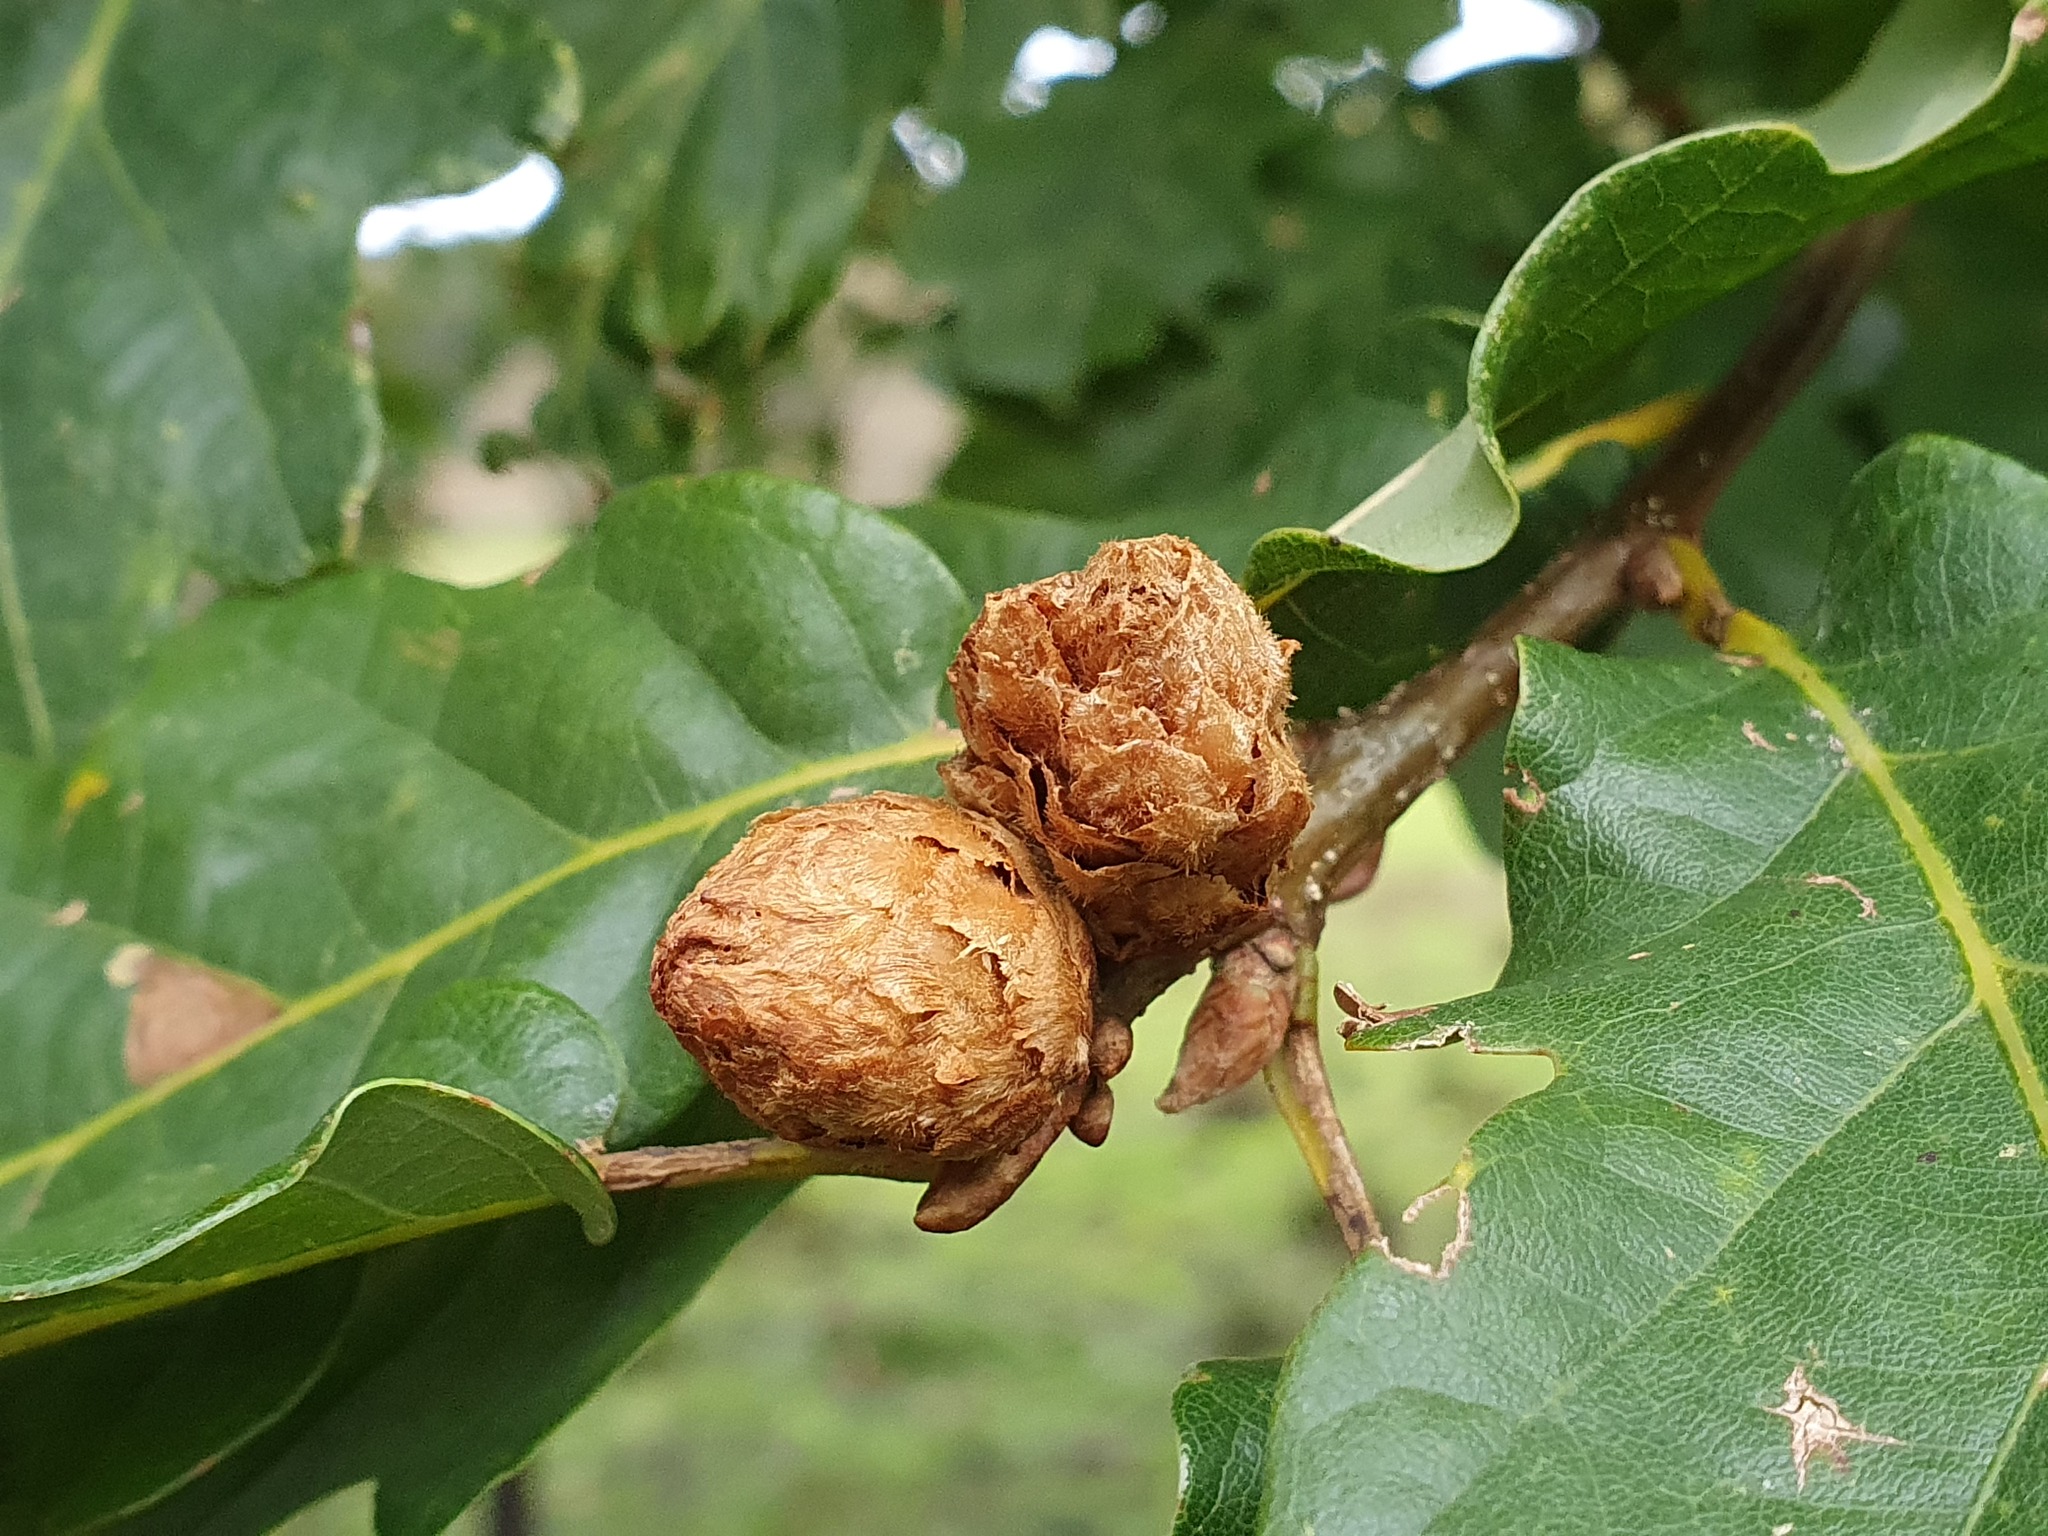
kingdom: Animalia
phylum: Arthropoda
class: Insecta
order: Hymenoptera
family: Cynipidae
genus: Andricus
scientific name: Andricus foecundatrix
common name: Artichoke gall
